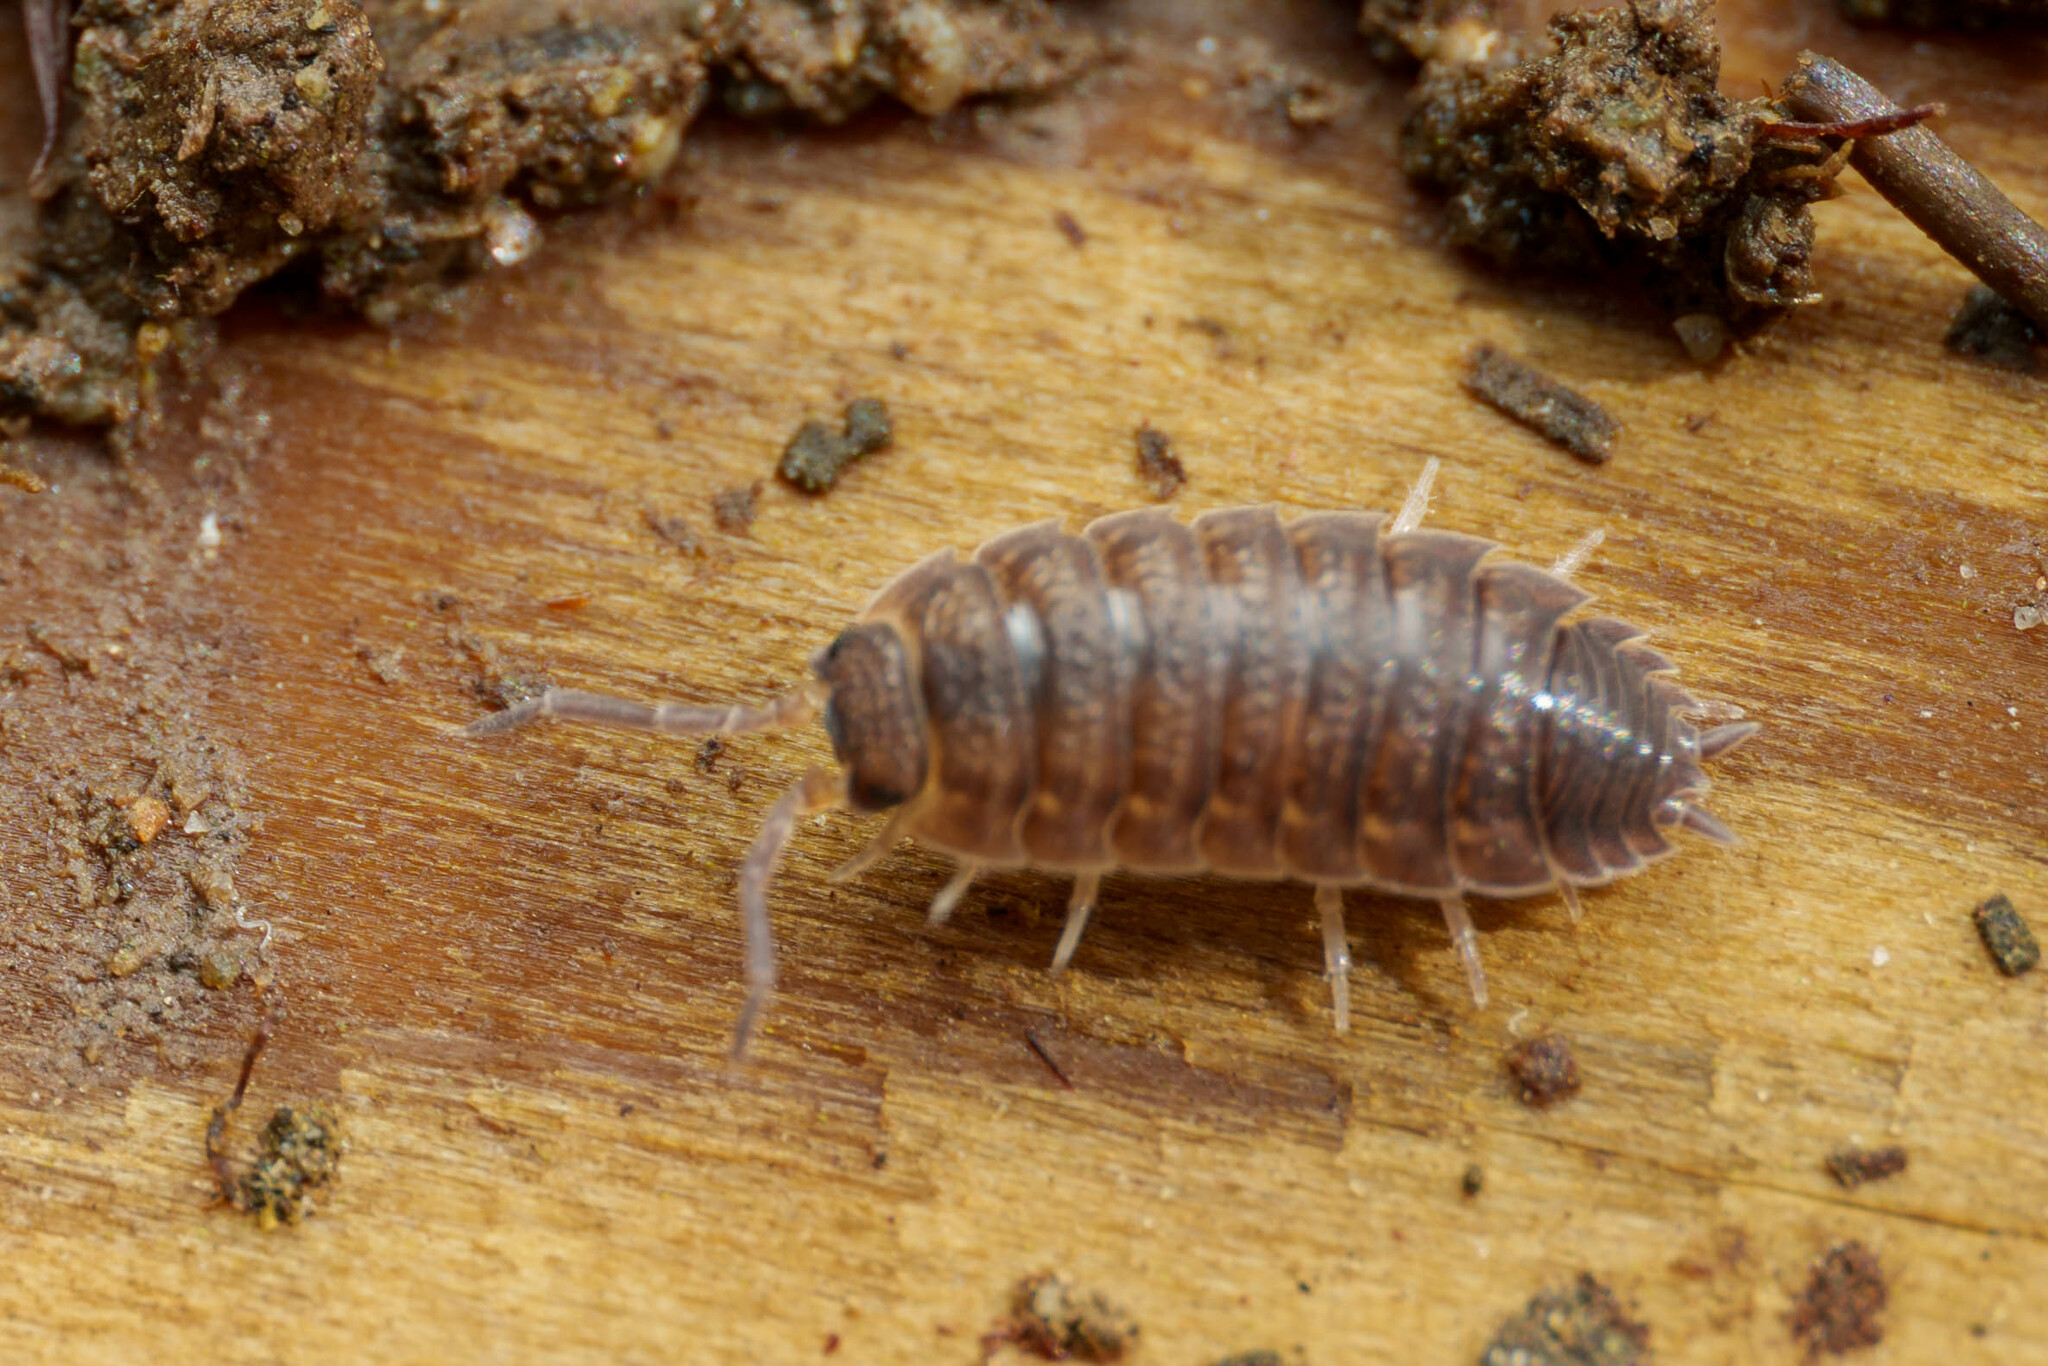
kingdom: Animalia
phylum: Arthropoda
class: Malacostraca
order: Isopoda
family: Porcellionidae
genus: Porcellio
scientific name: Porcellio scaber
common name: Common rough woodlouse
